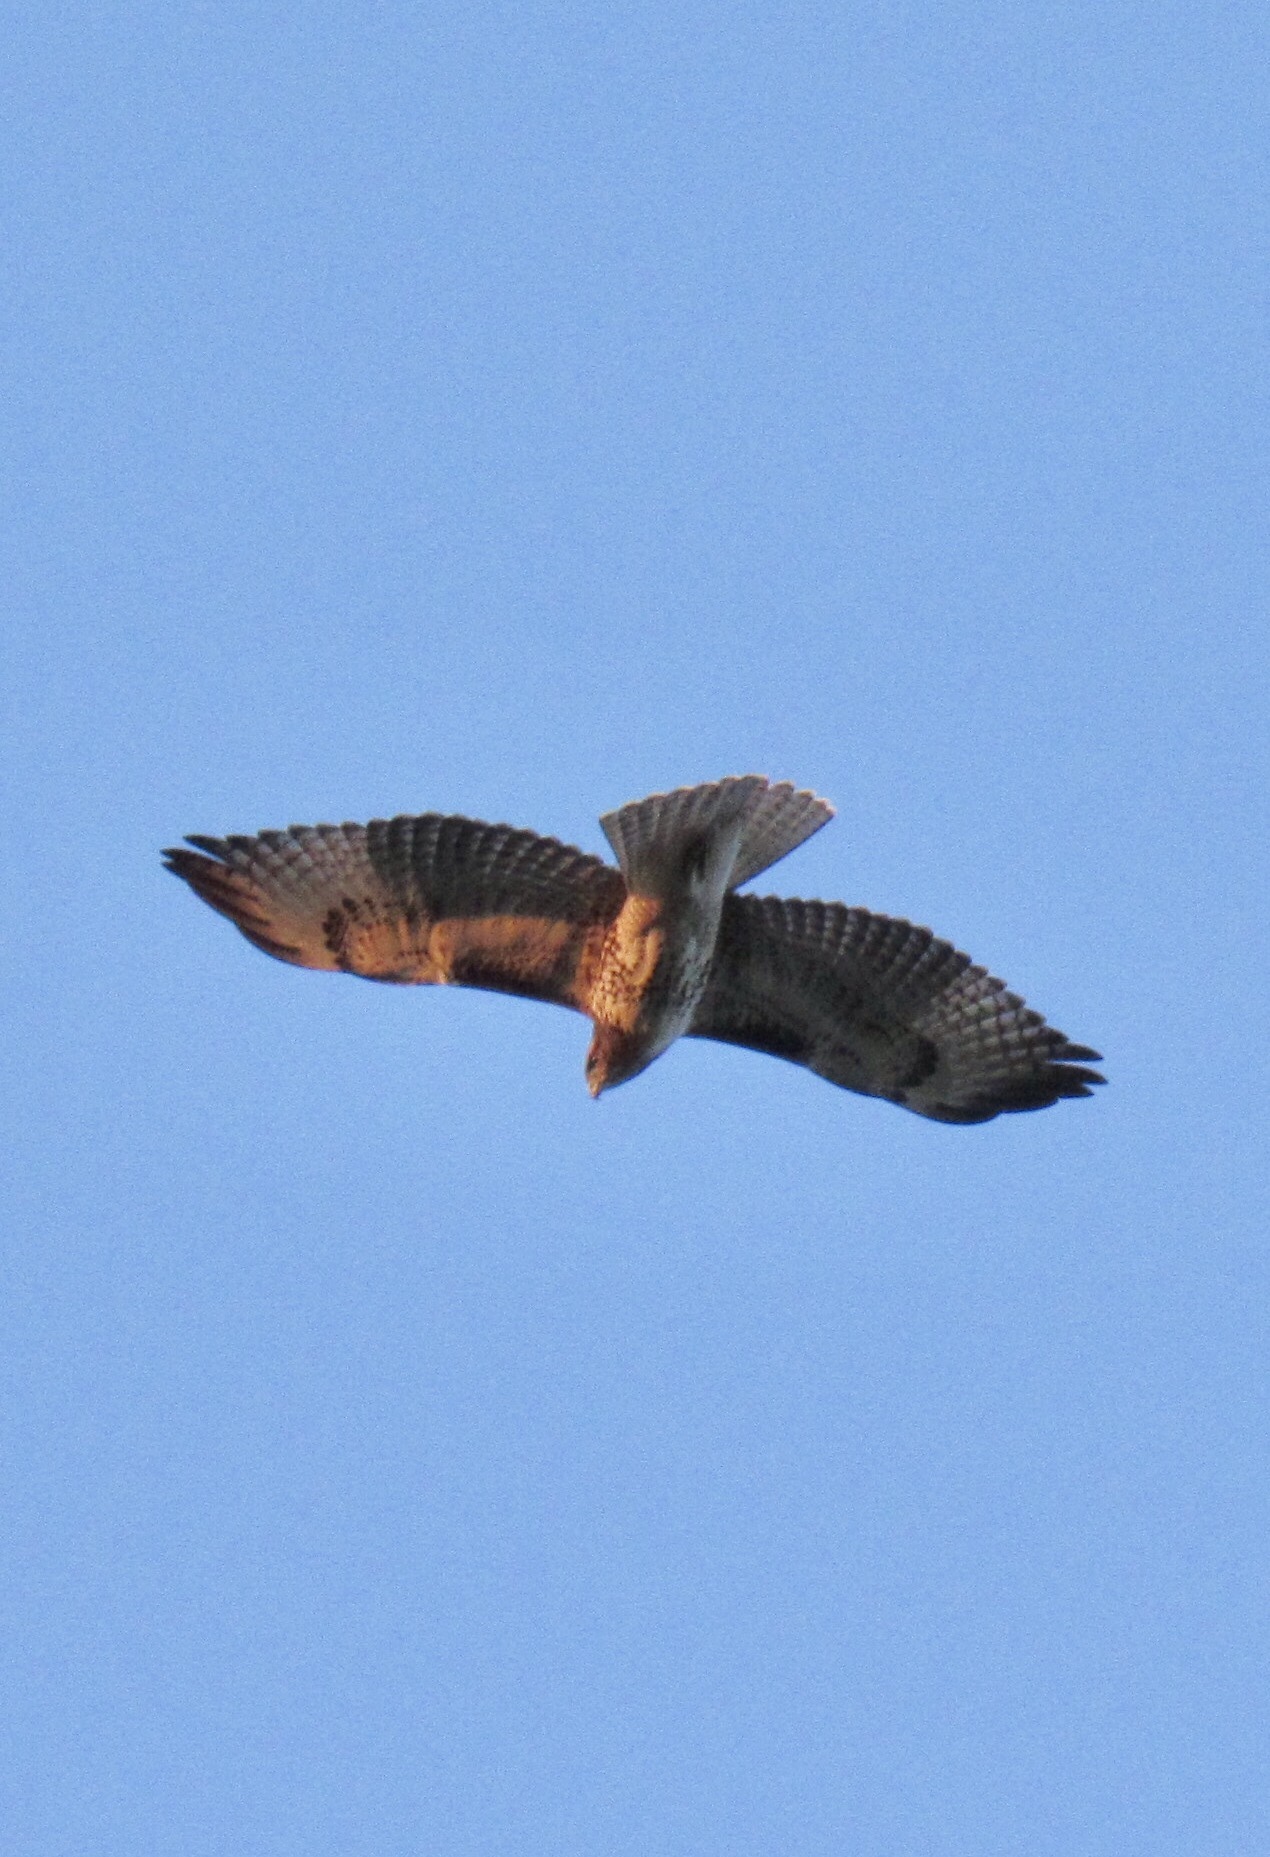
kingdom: Animalia
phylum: Chordata
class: Aves
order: Accipitriformes
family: Accipitridae
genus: Buteo
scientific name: Buteo jamaicensis
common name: Red-tailed hawk
